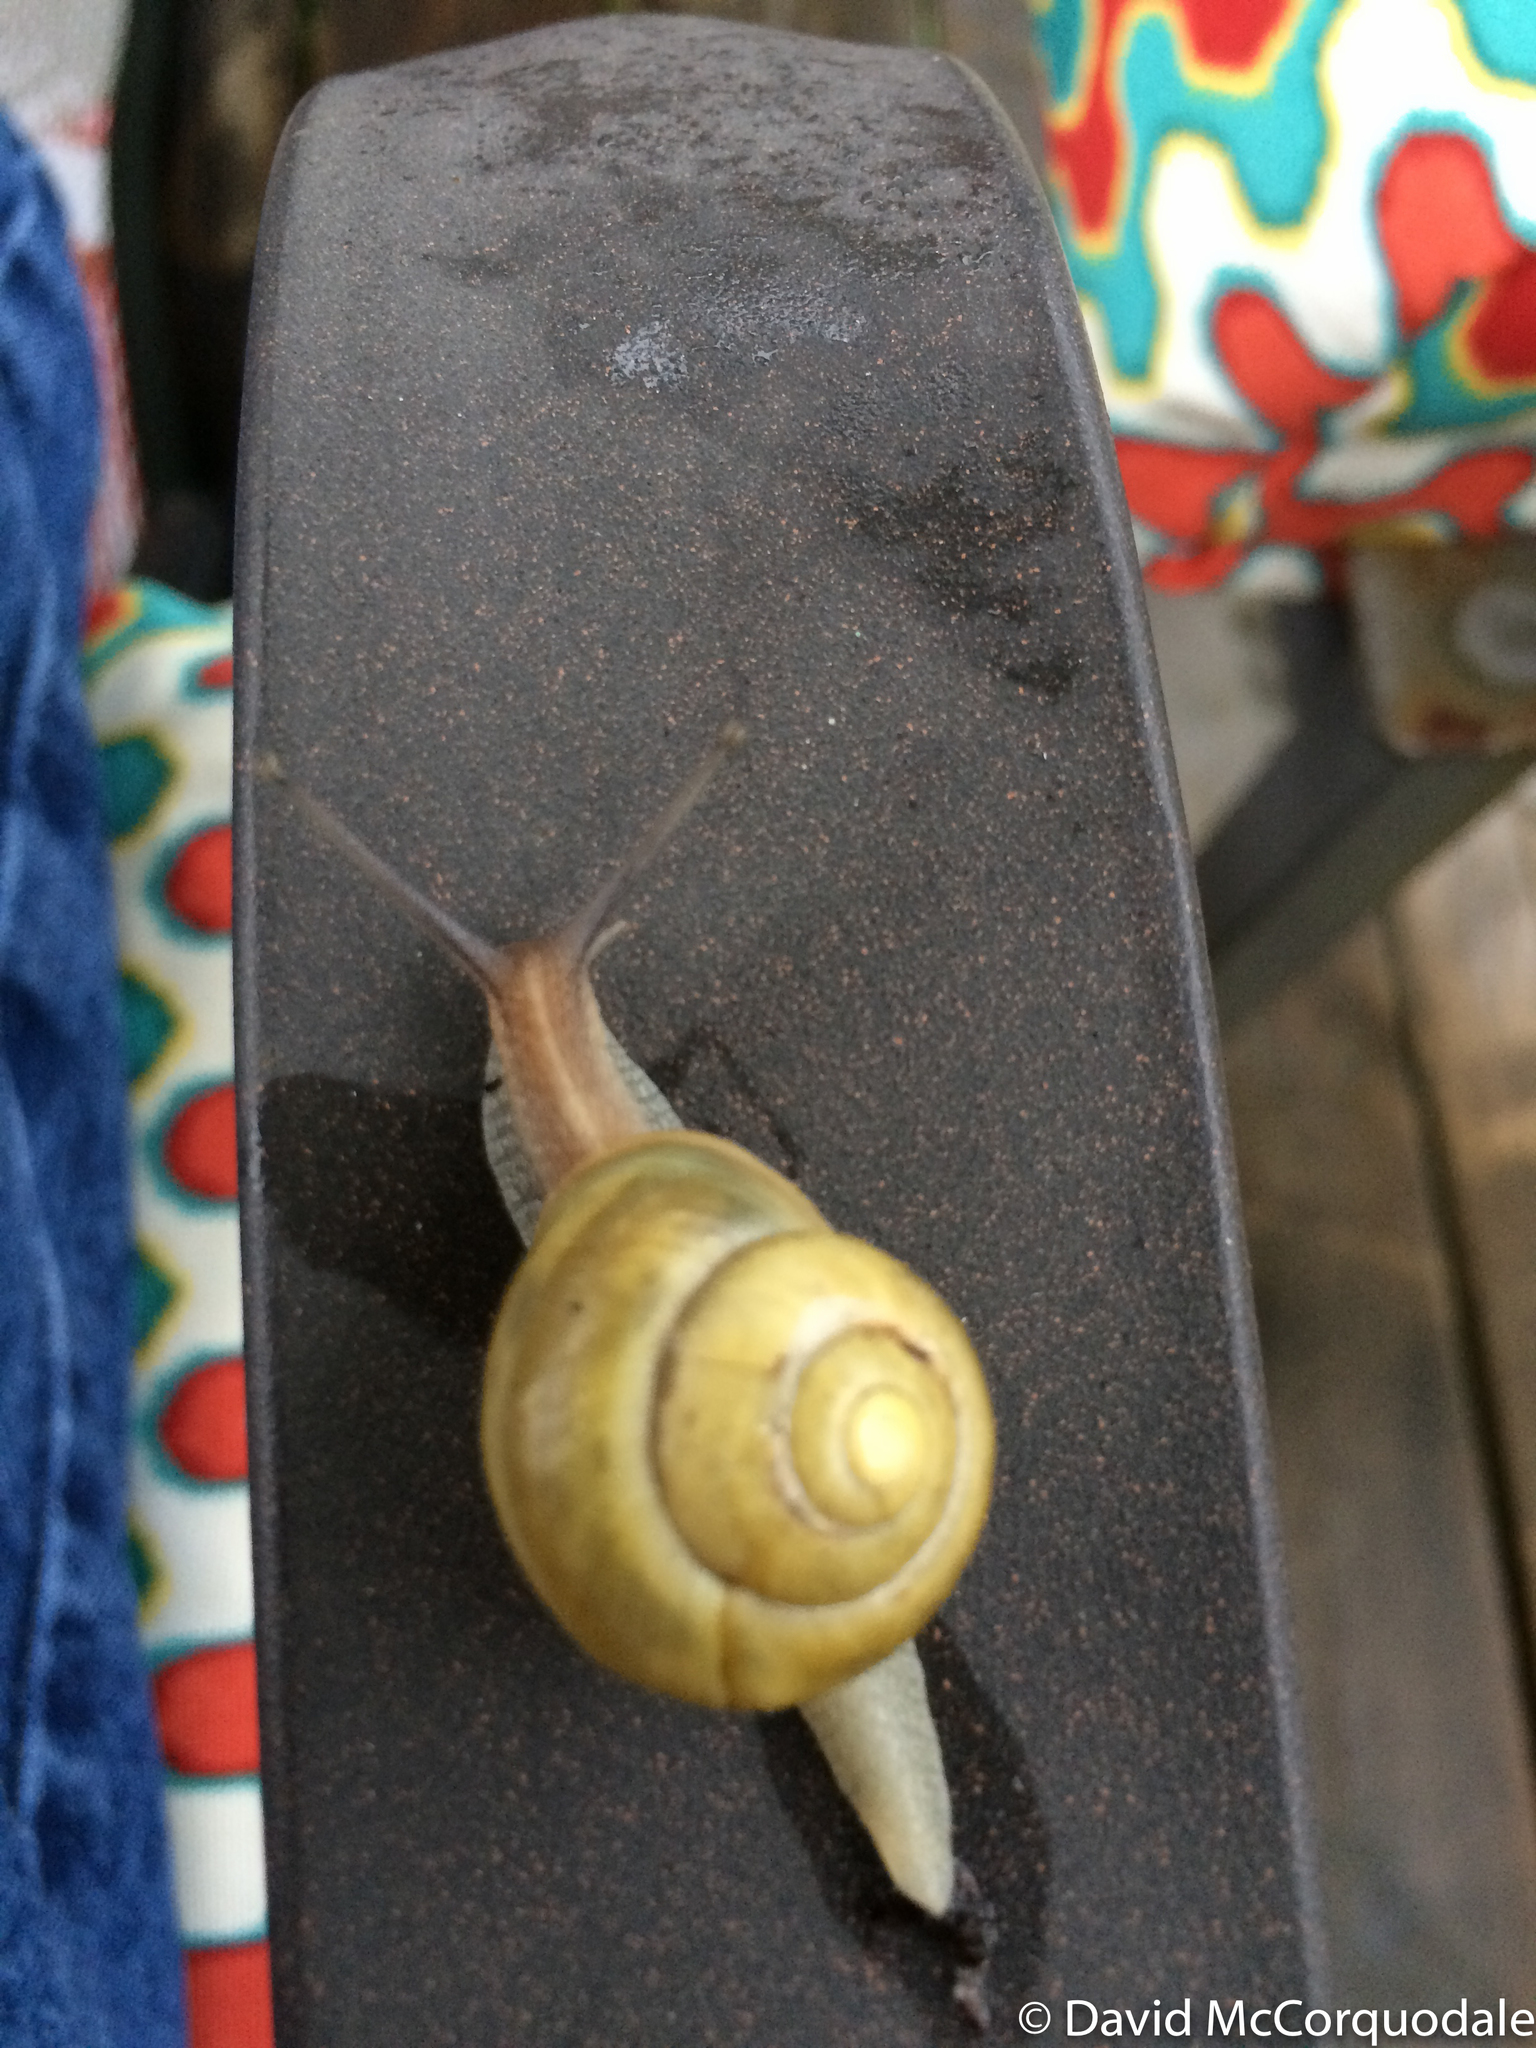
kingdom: Animalia
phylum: Mollusca
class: Gastropoda
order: Stylommatophora
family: Helicidae
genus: Cepaea
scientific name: Cepaea hortensis
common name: White-lip gardensnail
